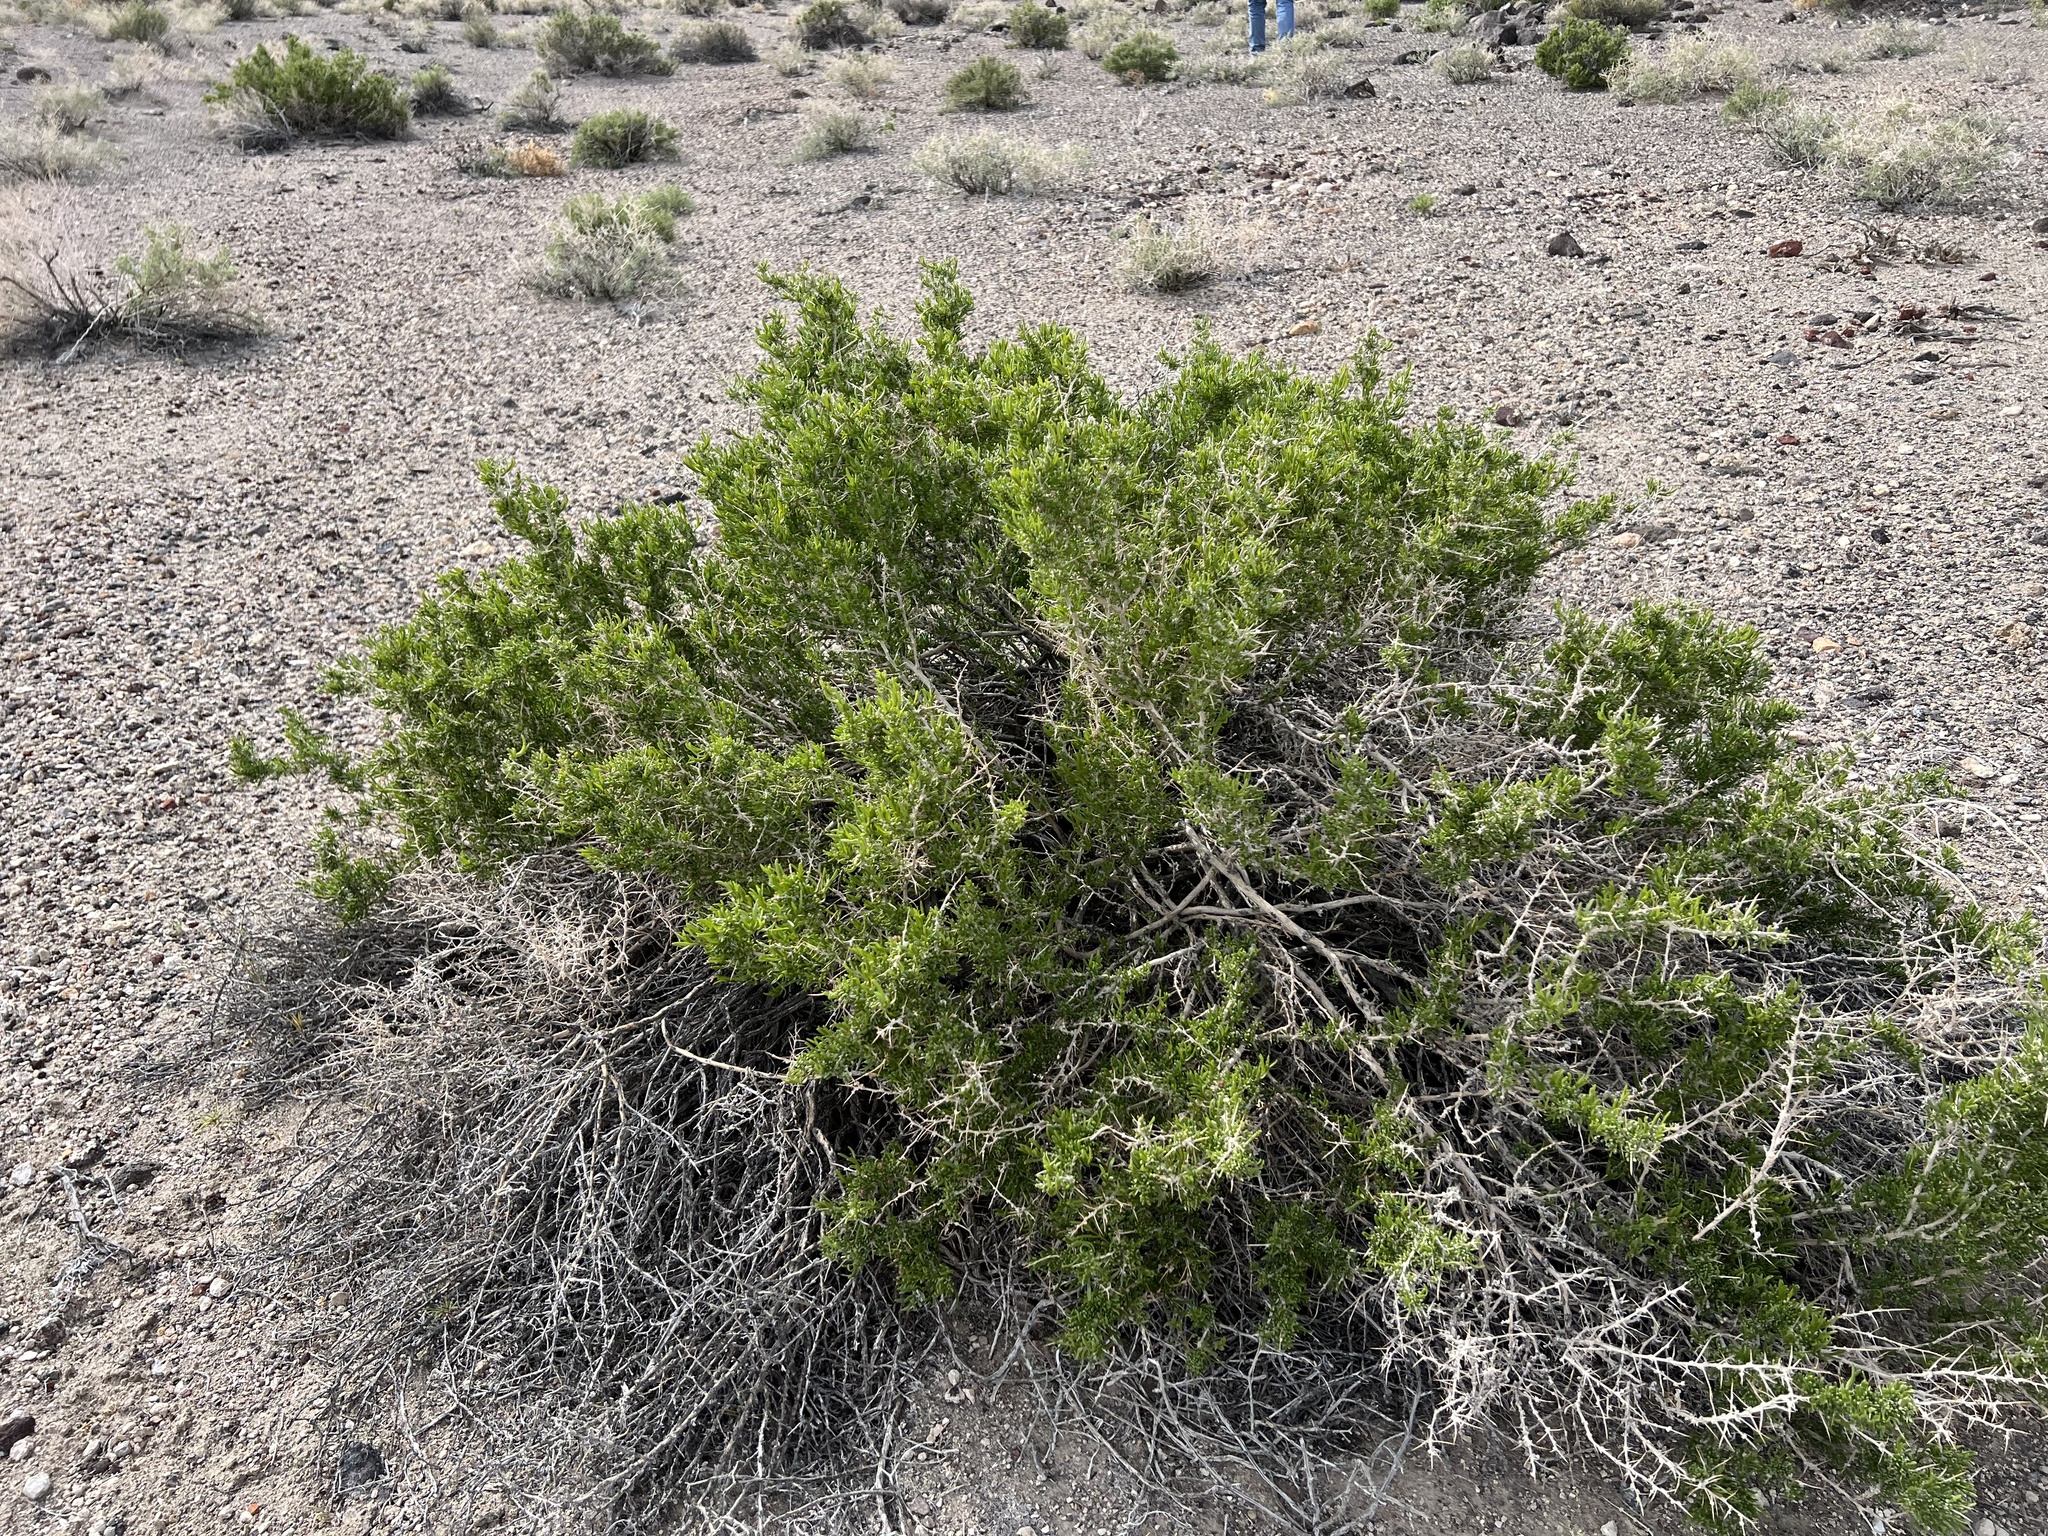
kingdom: Plantae
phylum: Tracheophyta
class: Magnoliopsida
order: Caryophyllales
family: Sarcobataceae
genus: Sarcobatus
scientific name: Sarcobatus baileyi
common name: Bailey greasewood
